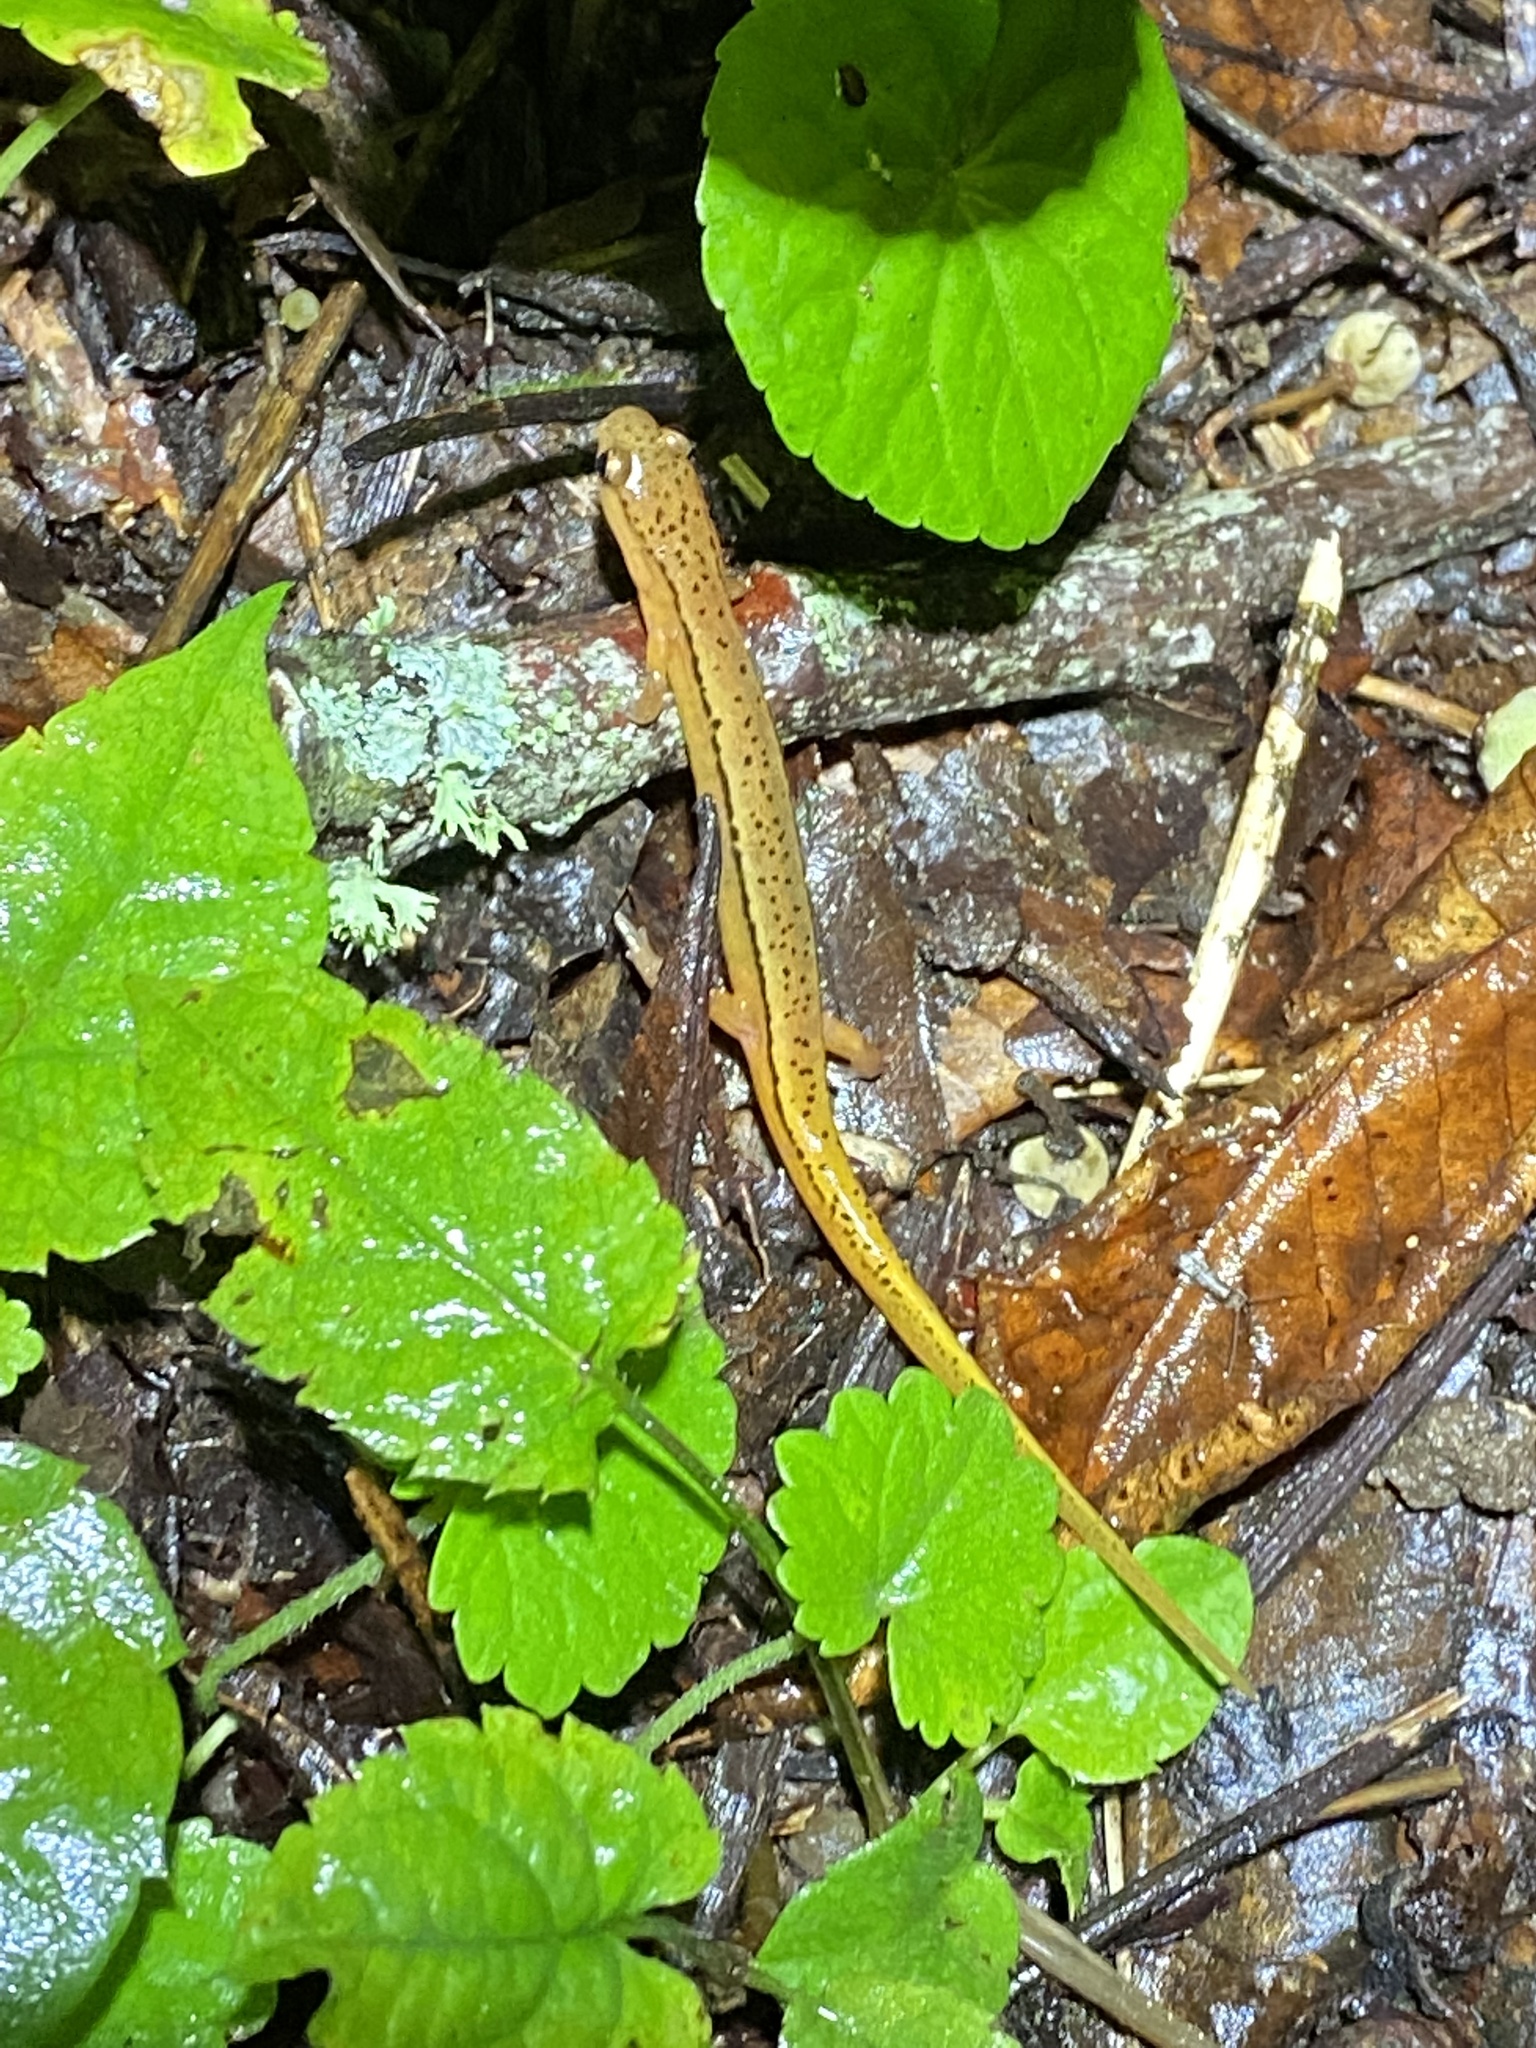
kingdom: Animalia
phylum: Chordata
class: Amphibia
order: Caudata
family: Plethodontidae
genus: Eurycea
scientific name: Eurycea wilderae
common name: Blue ridge two-lined salamander
